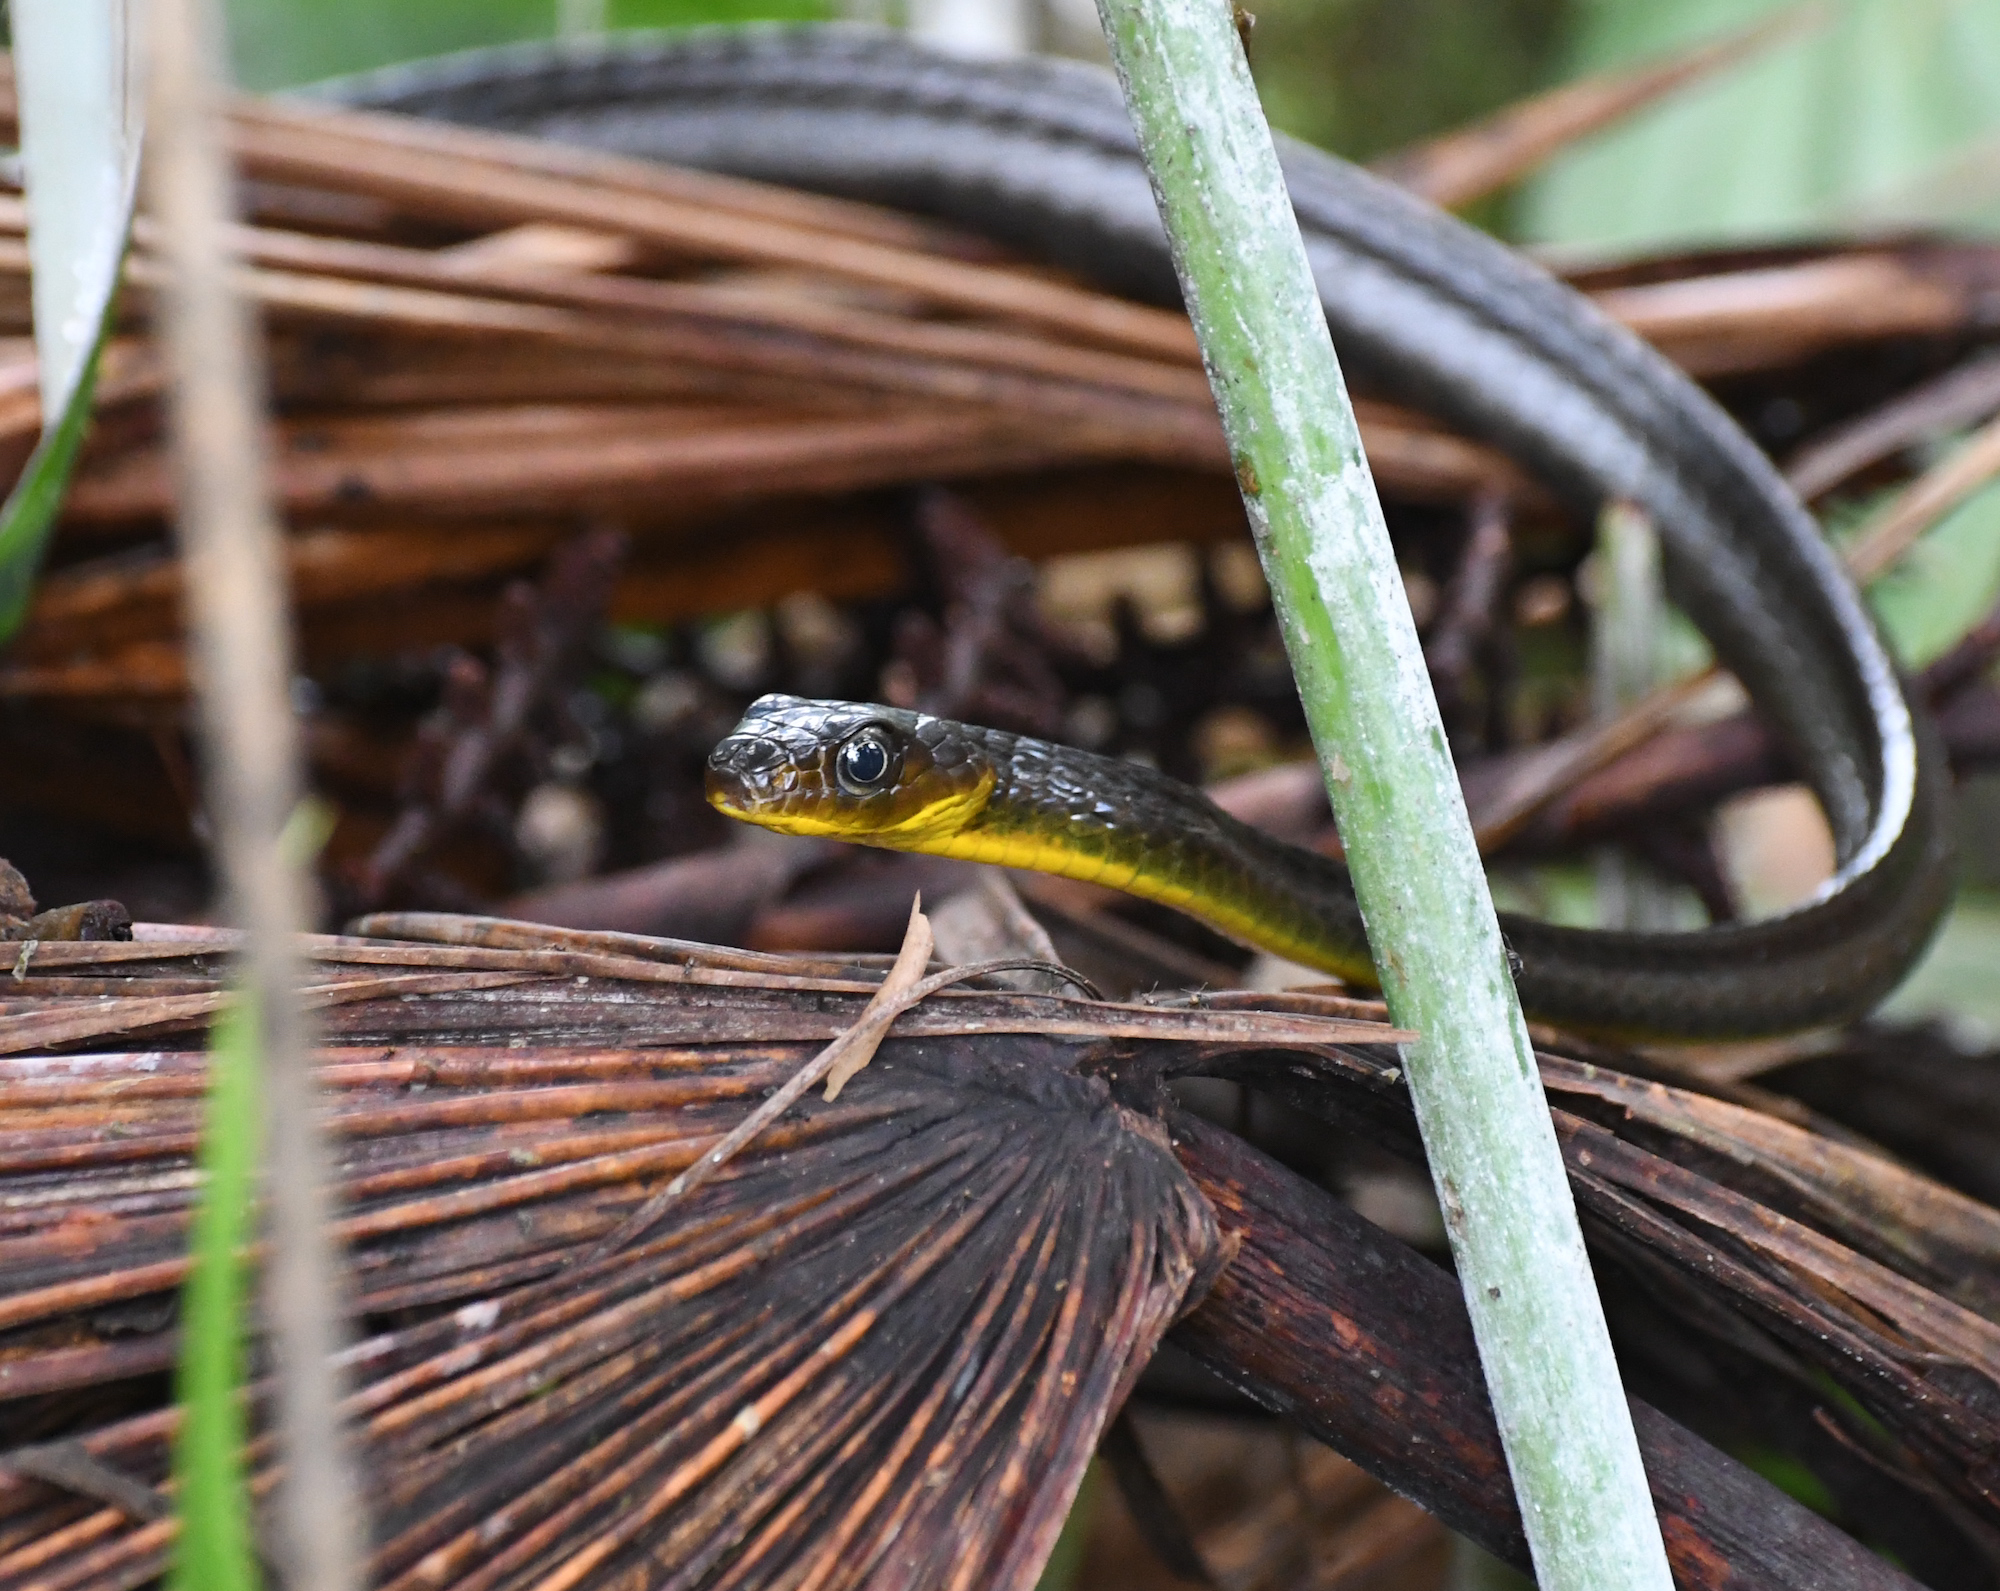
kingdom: Animalia
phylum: Chordata
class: Squamata
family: Colubridae
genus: Chironius
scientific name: Chironius multiventris
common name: South american sipo
